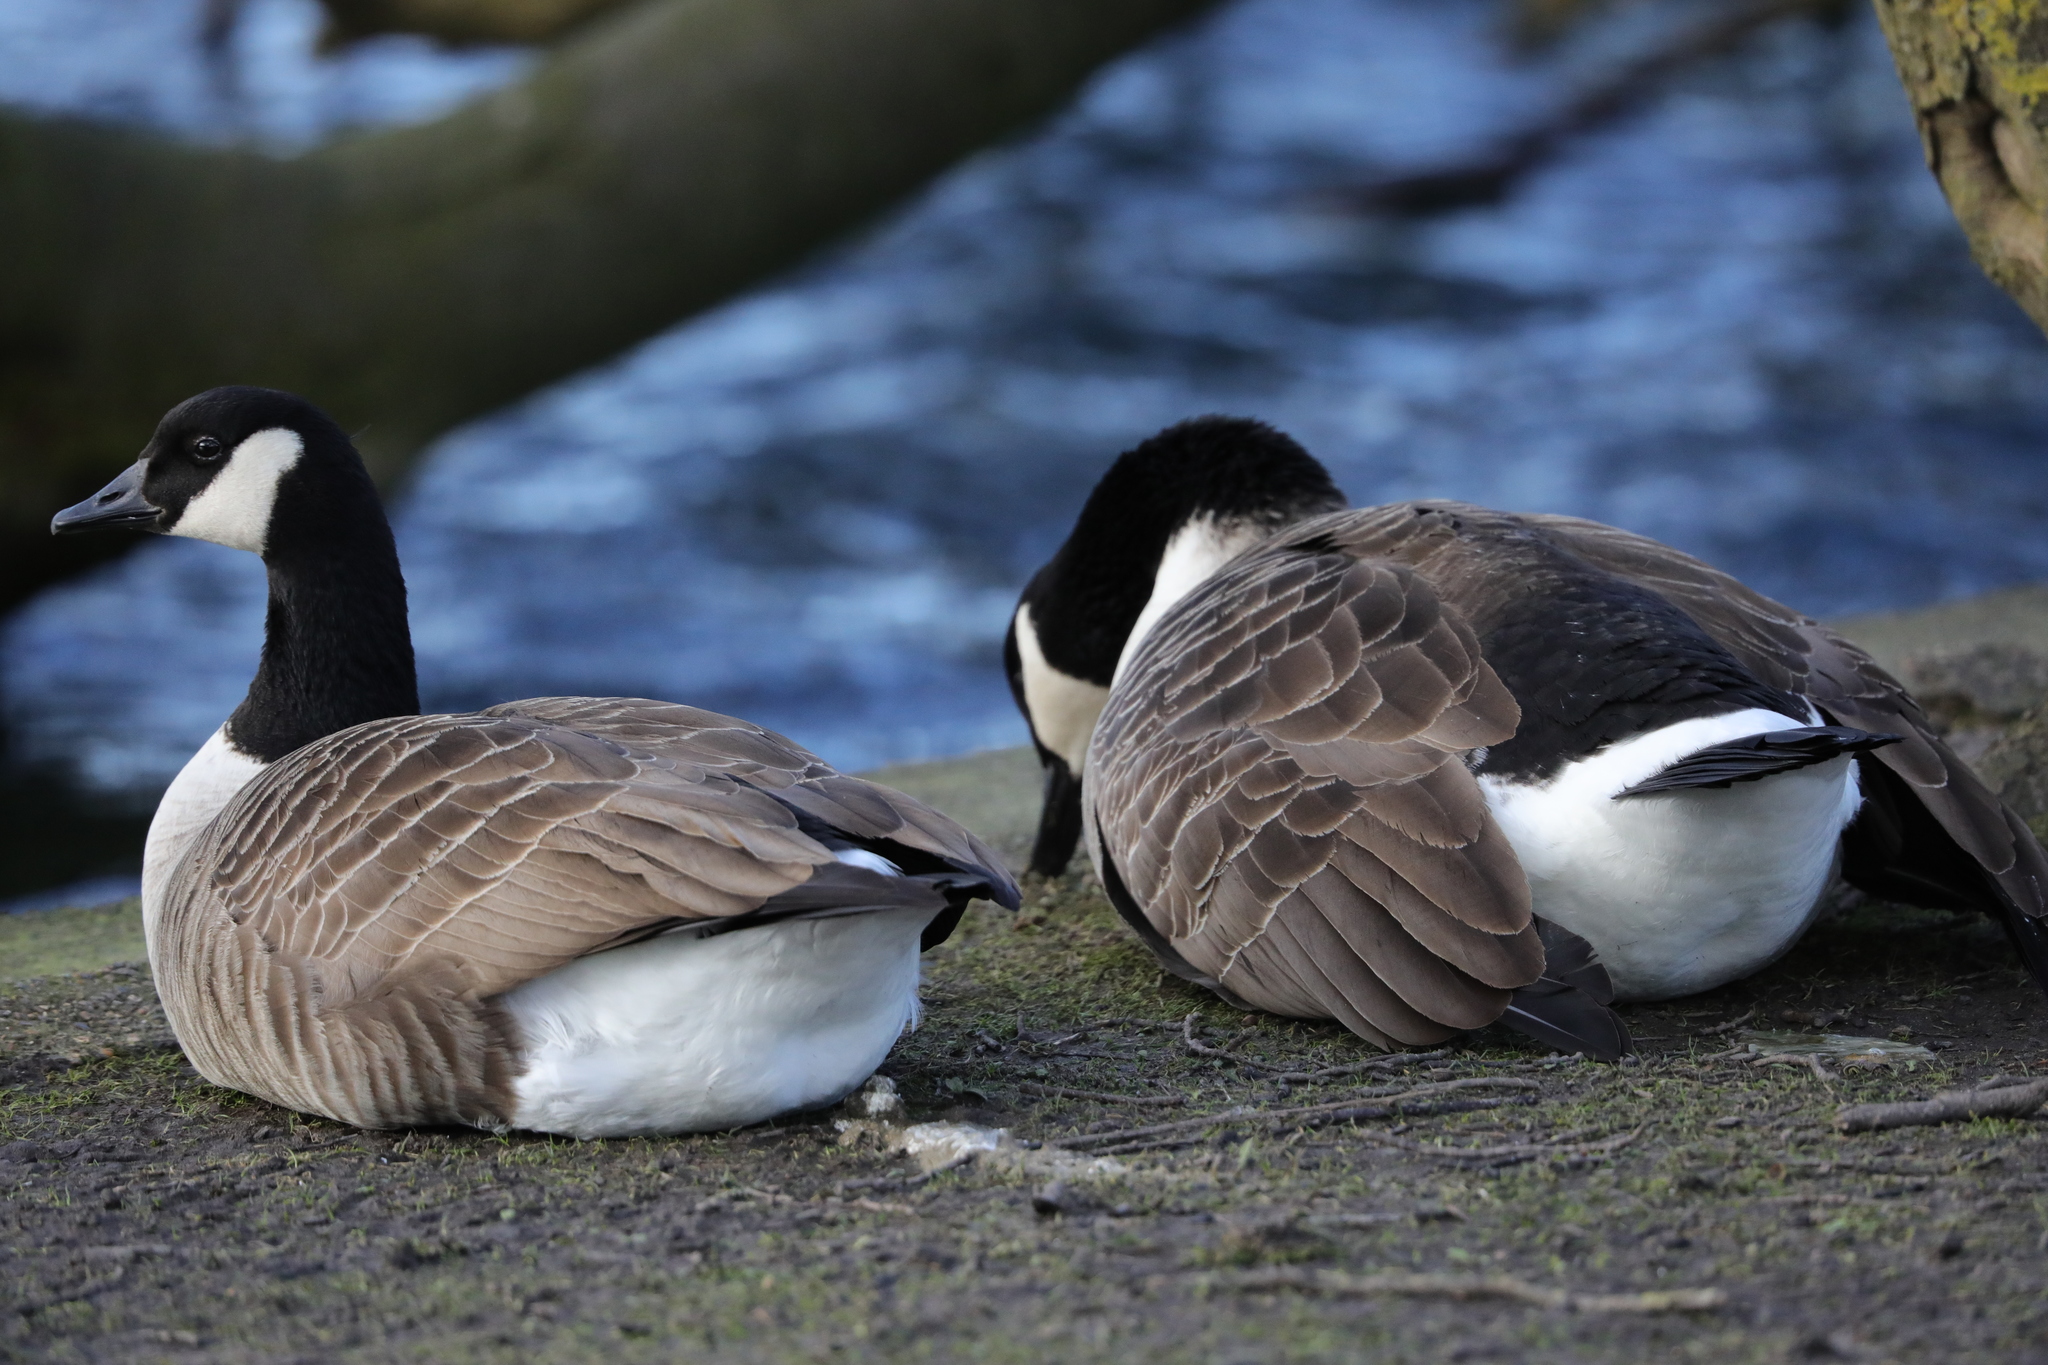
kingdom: Animalia
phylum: Chordata
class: Aves
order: Anseriformes
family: Anatidae
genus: Branta
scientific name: Branta canadensis
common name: Canada goose
